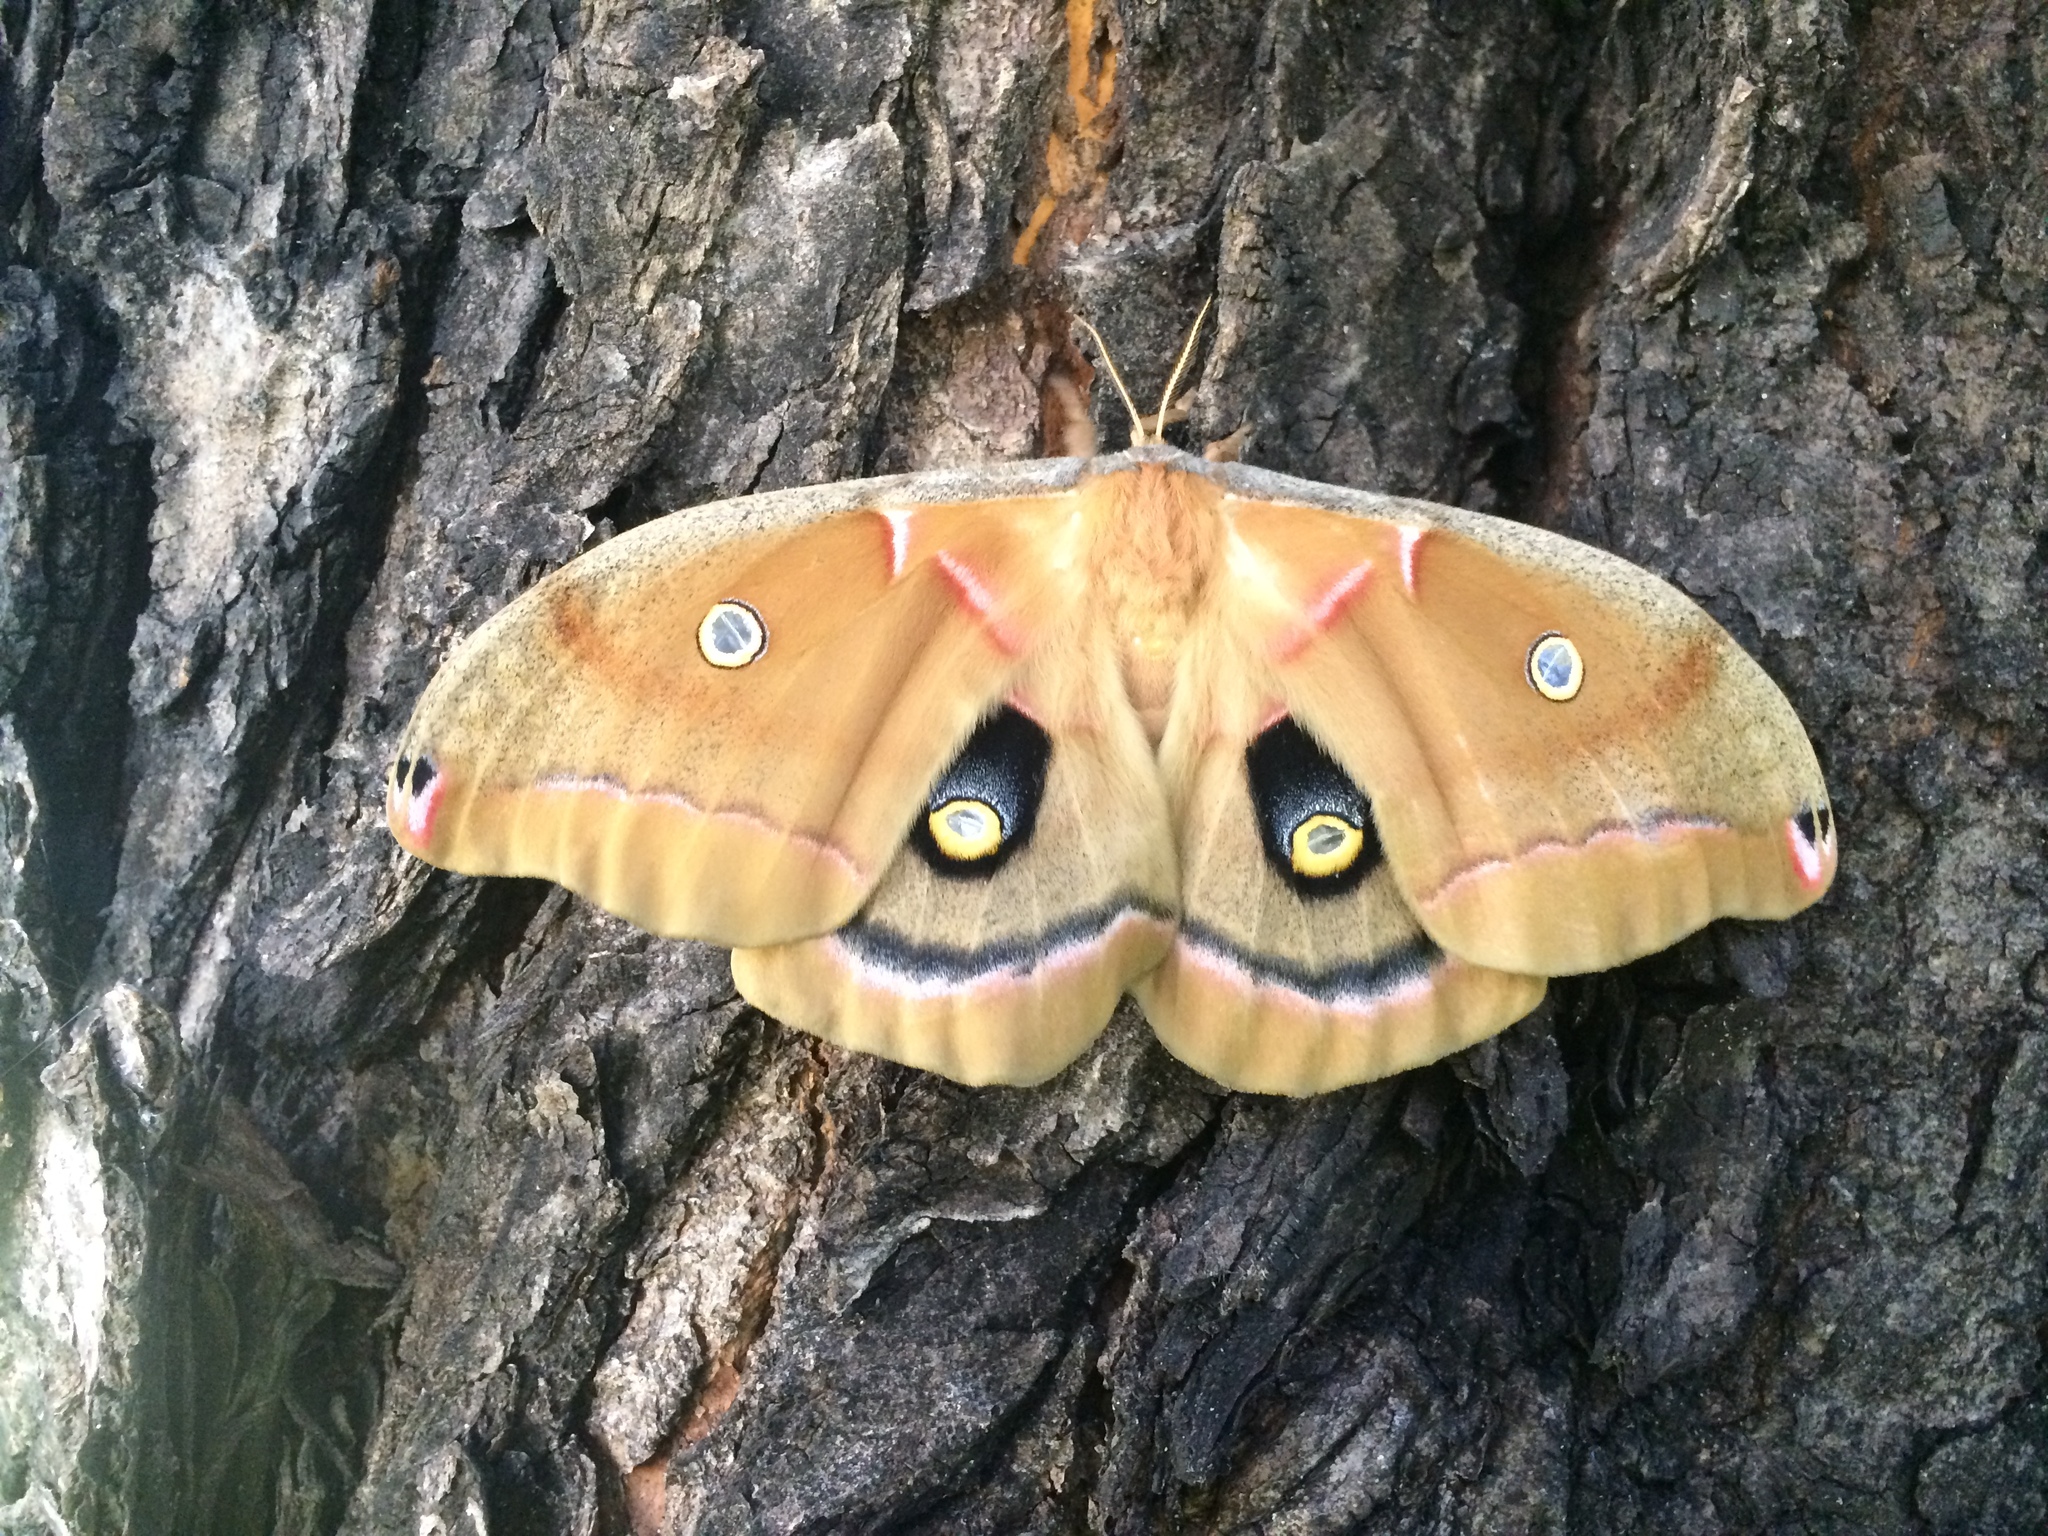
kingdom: Animalia
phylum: Arthropoda
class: Insecta
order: Lepidoptera
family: Saturniidae
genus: Antheraea
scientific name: Antheraea polyphemus
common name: Polyphemus moth
